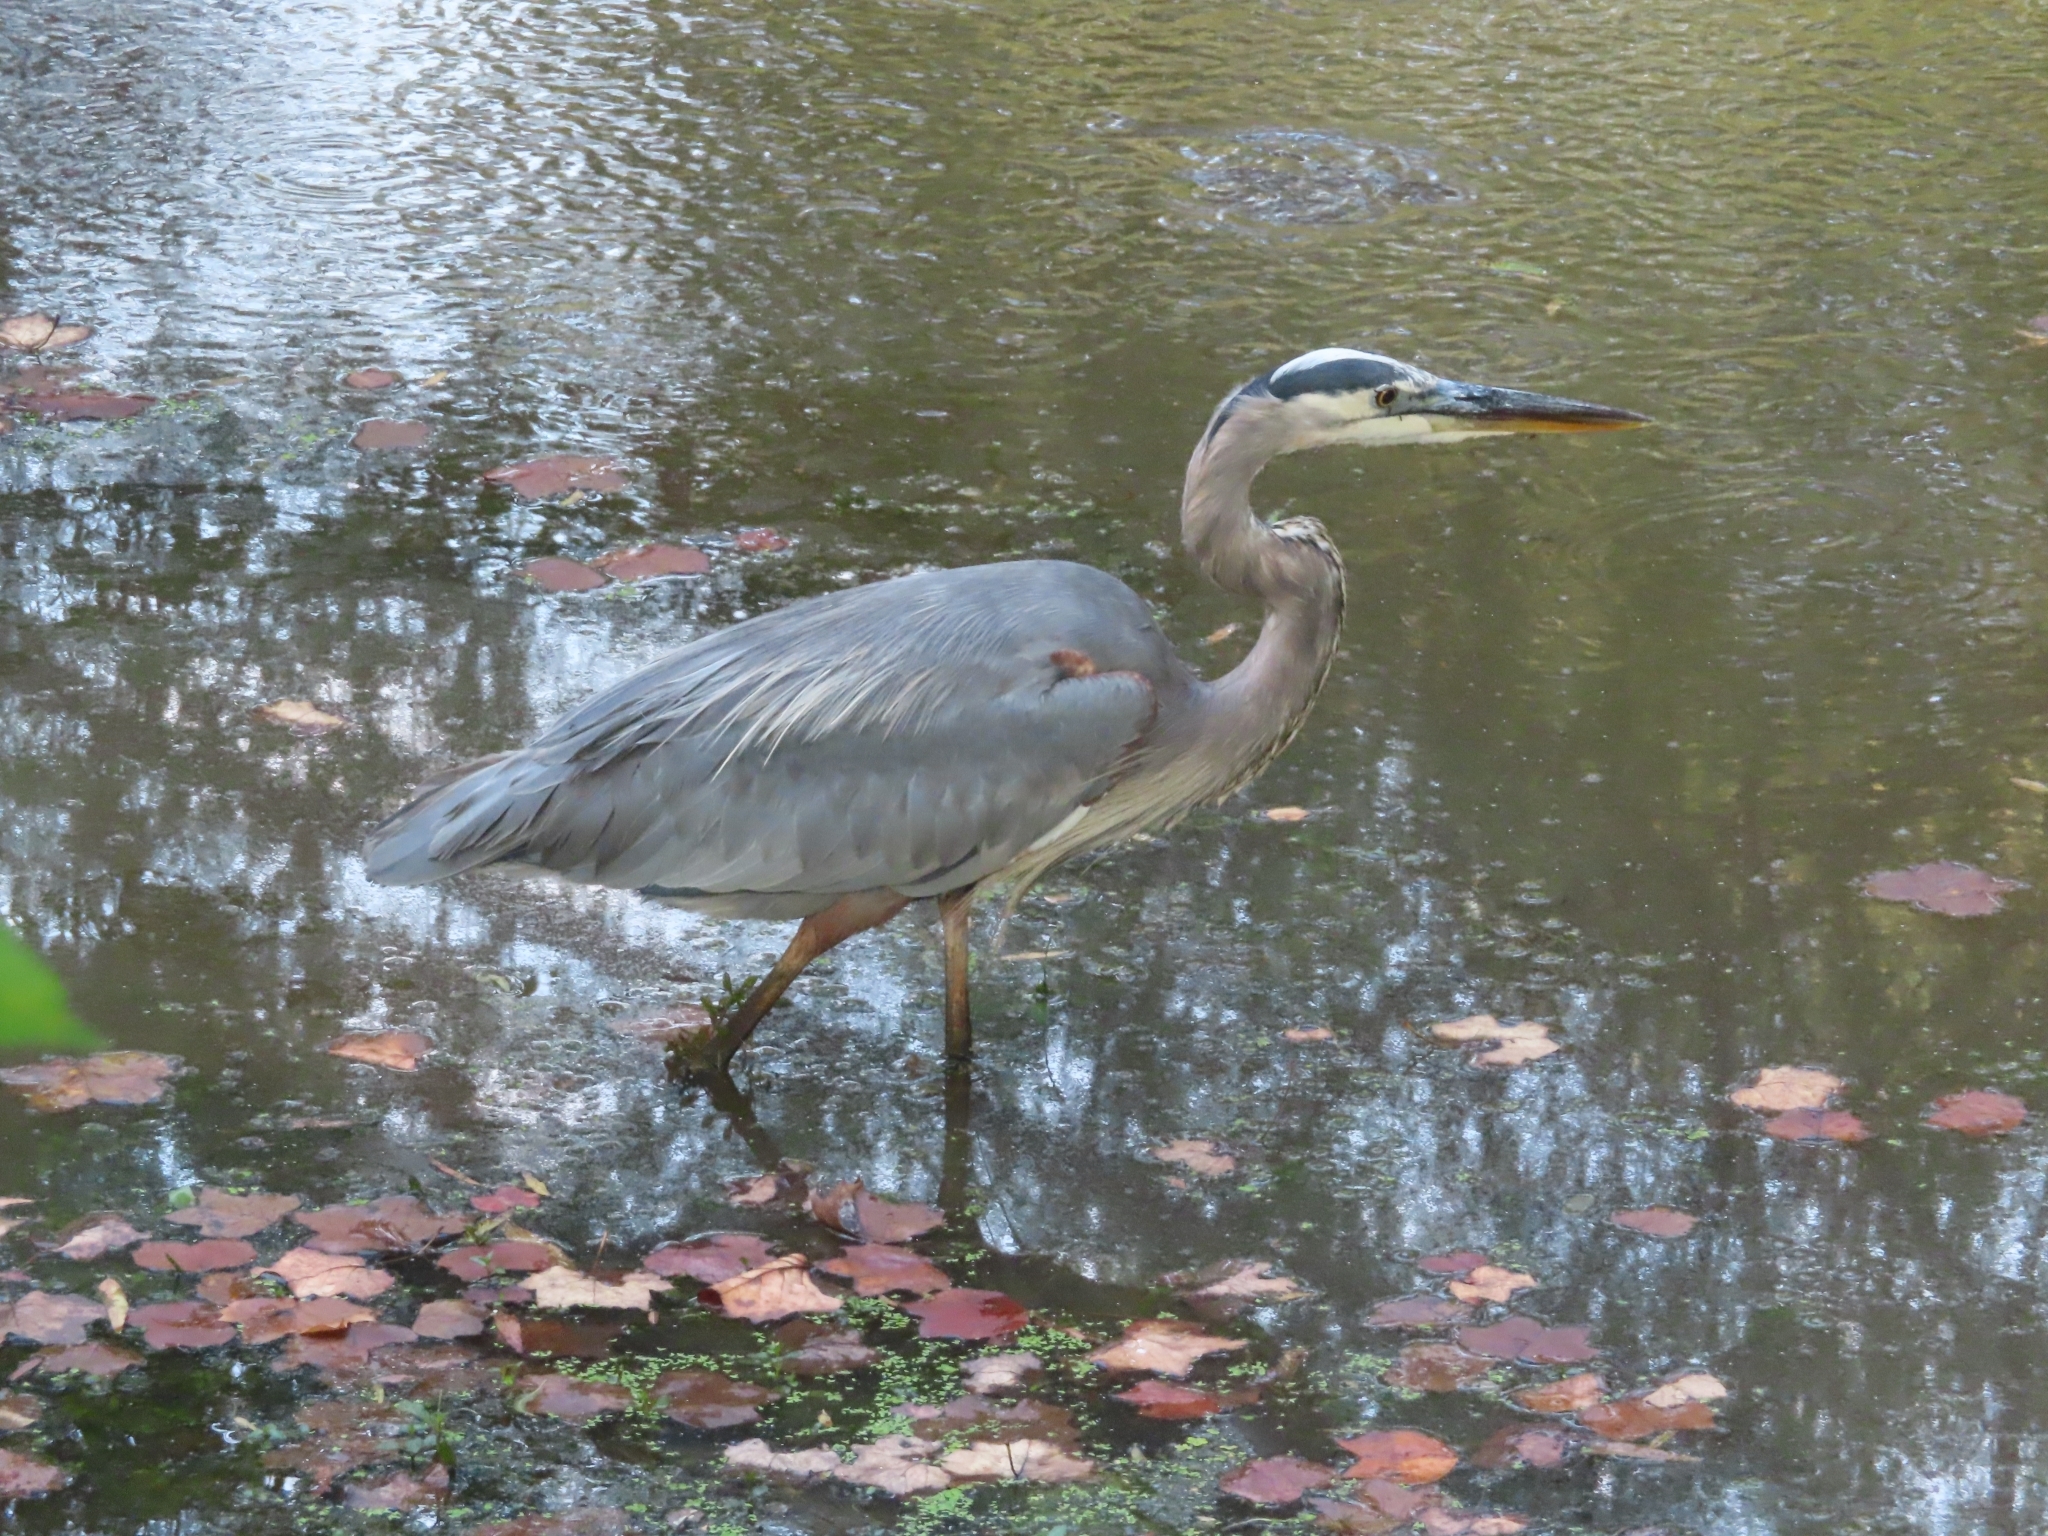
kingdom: Animalia
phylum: Chordata
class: Aves
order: Pelecaniformes
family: Ardeidae
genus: Ardea
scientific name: Ardea herodias
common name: Great blue heron
